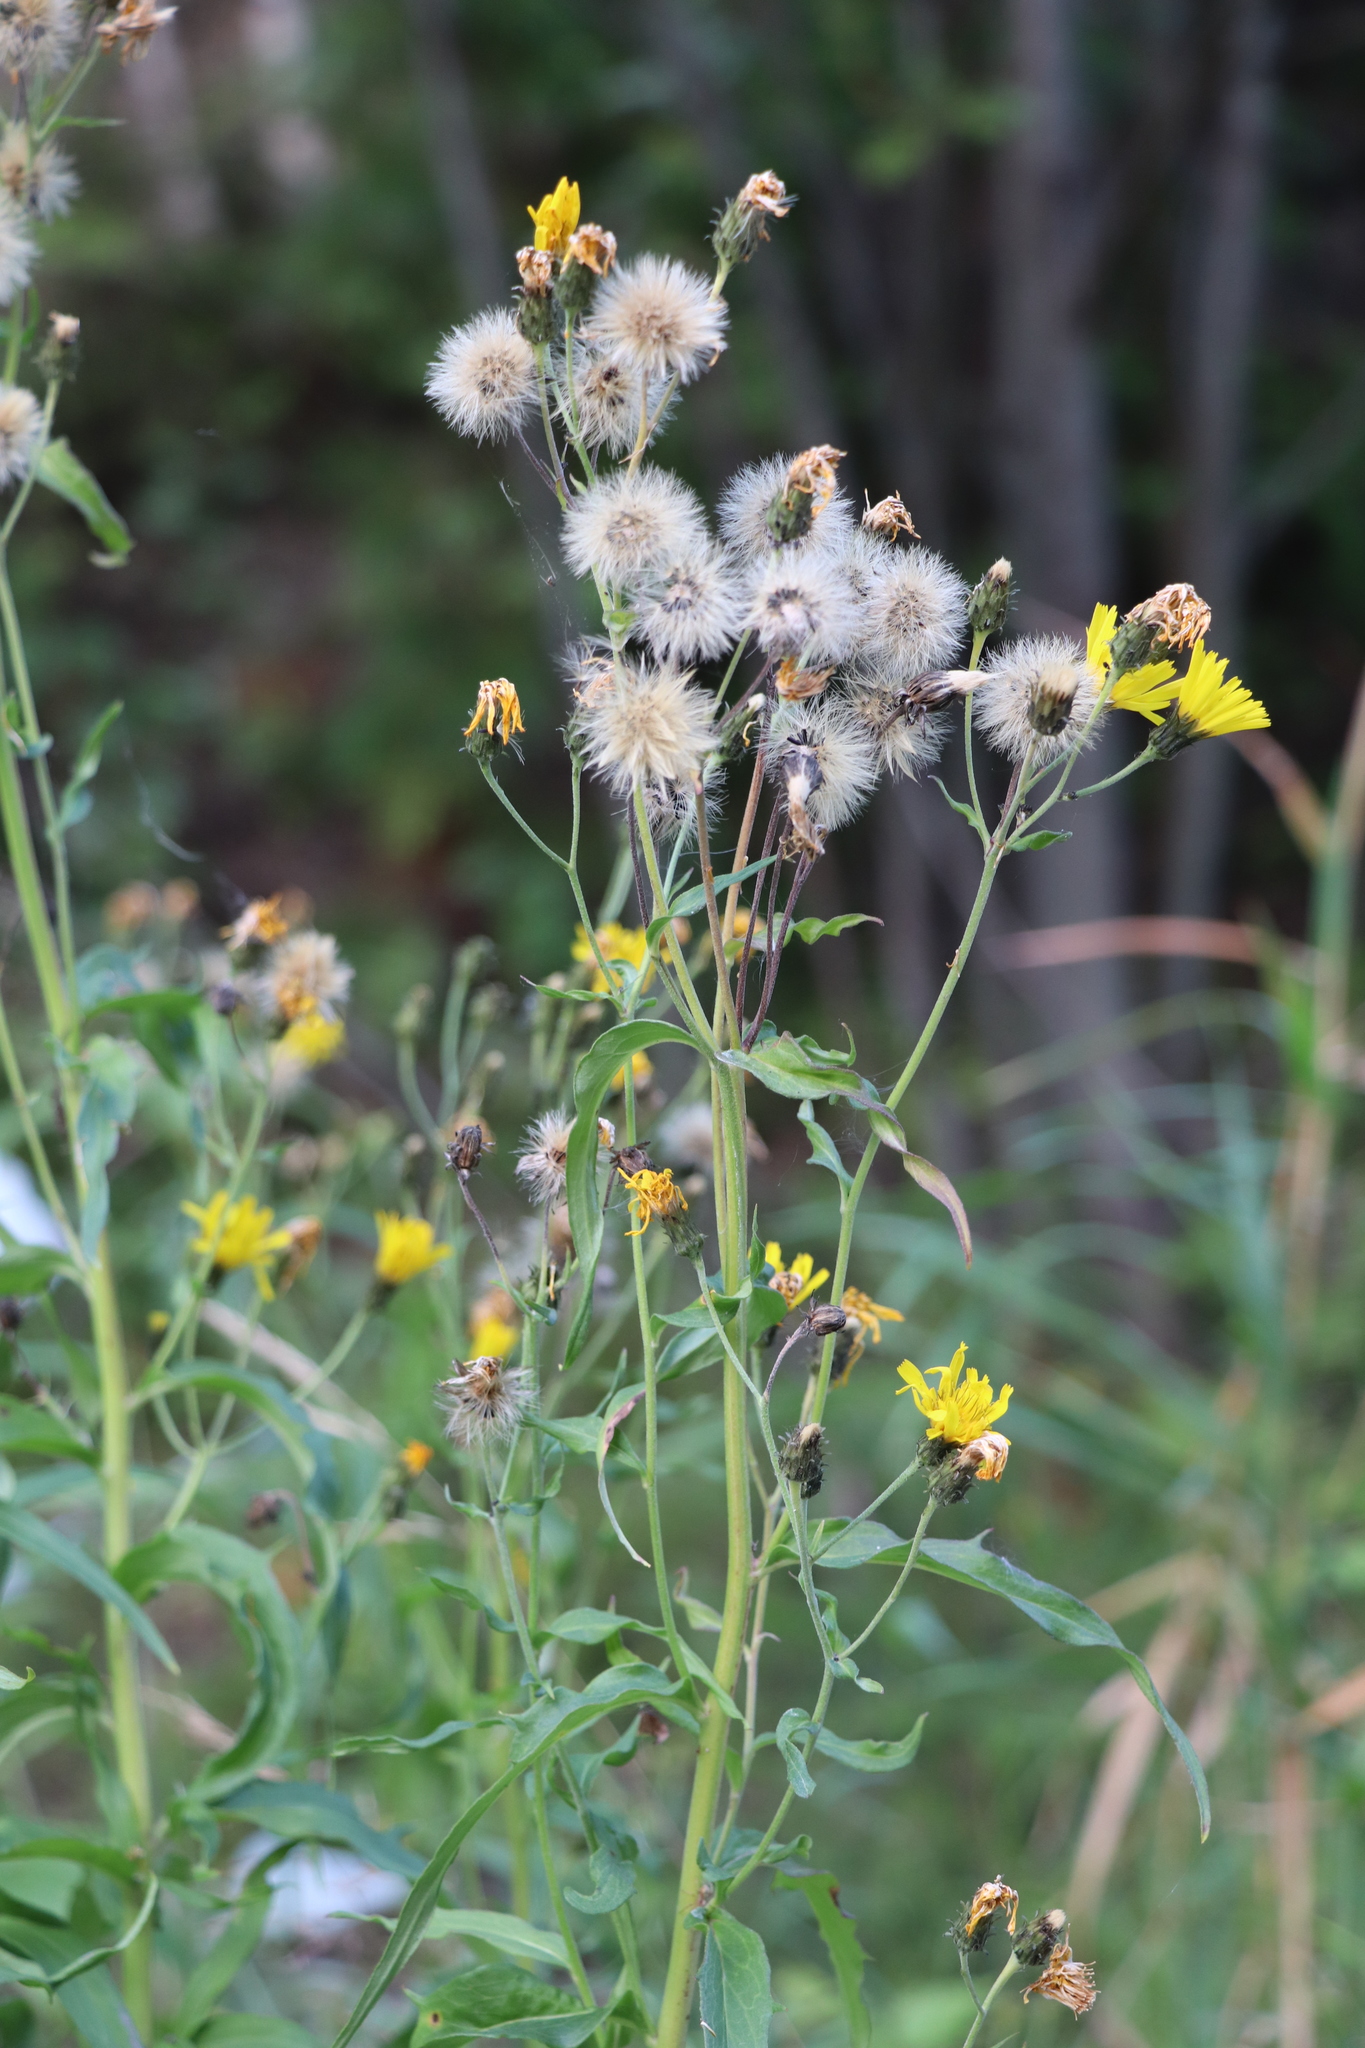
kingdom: Plantae
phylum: Tracheophyta
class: Magnoliopsida
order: Asterales
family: Asteraceae
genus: Hieracium
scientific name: Hieracium umbellatum
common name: Northern hawkweed
